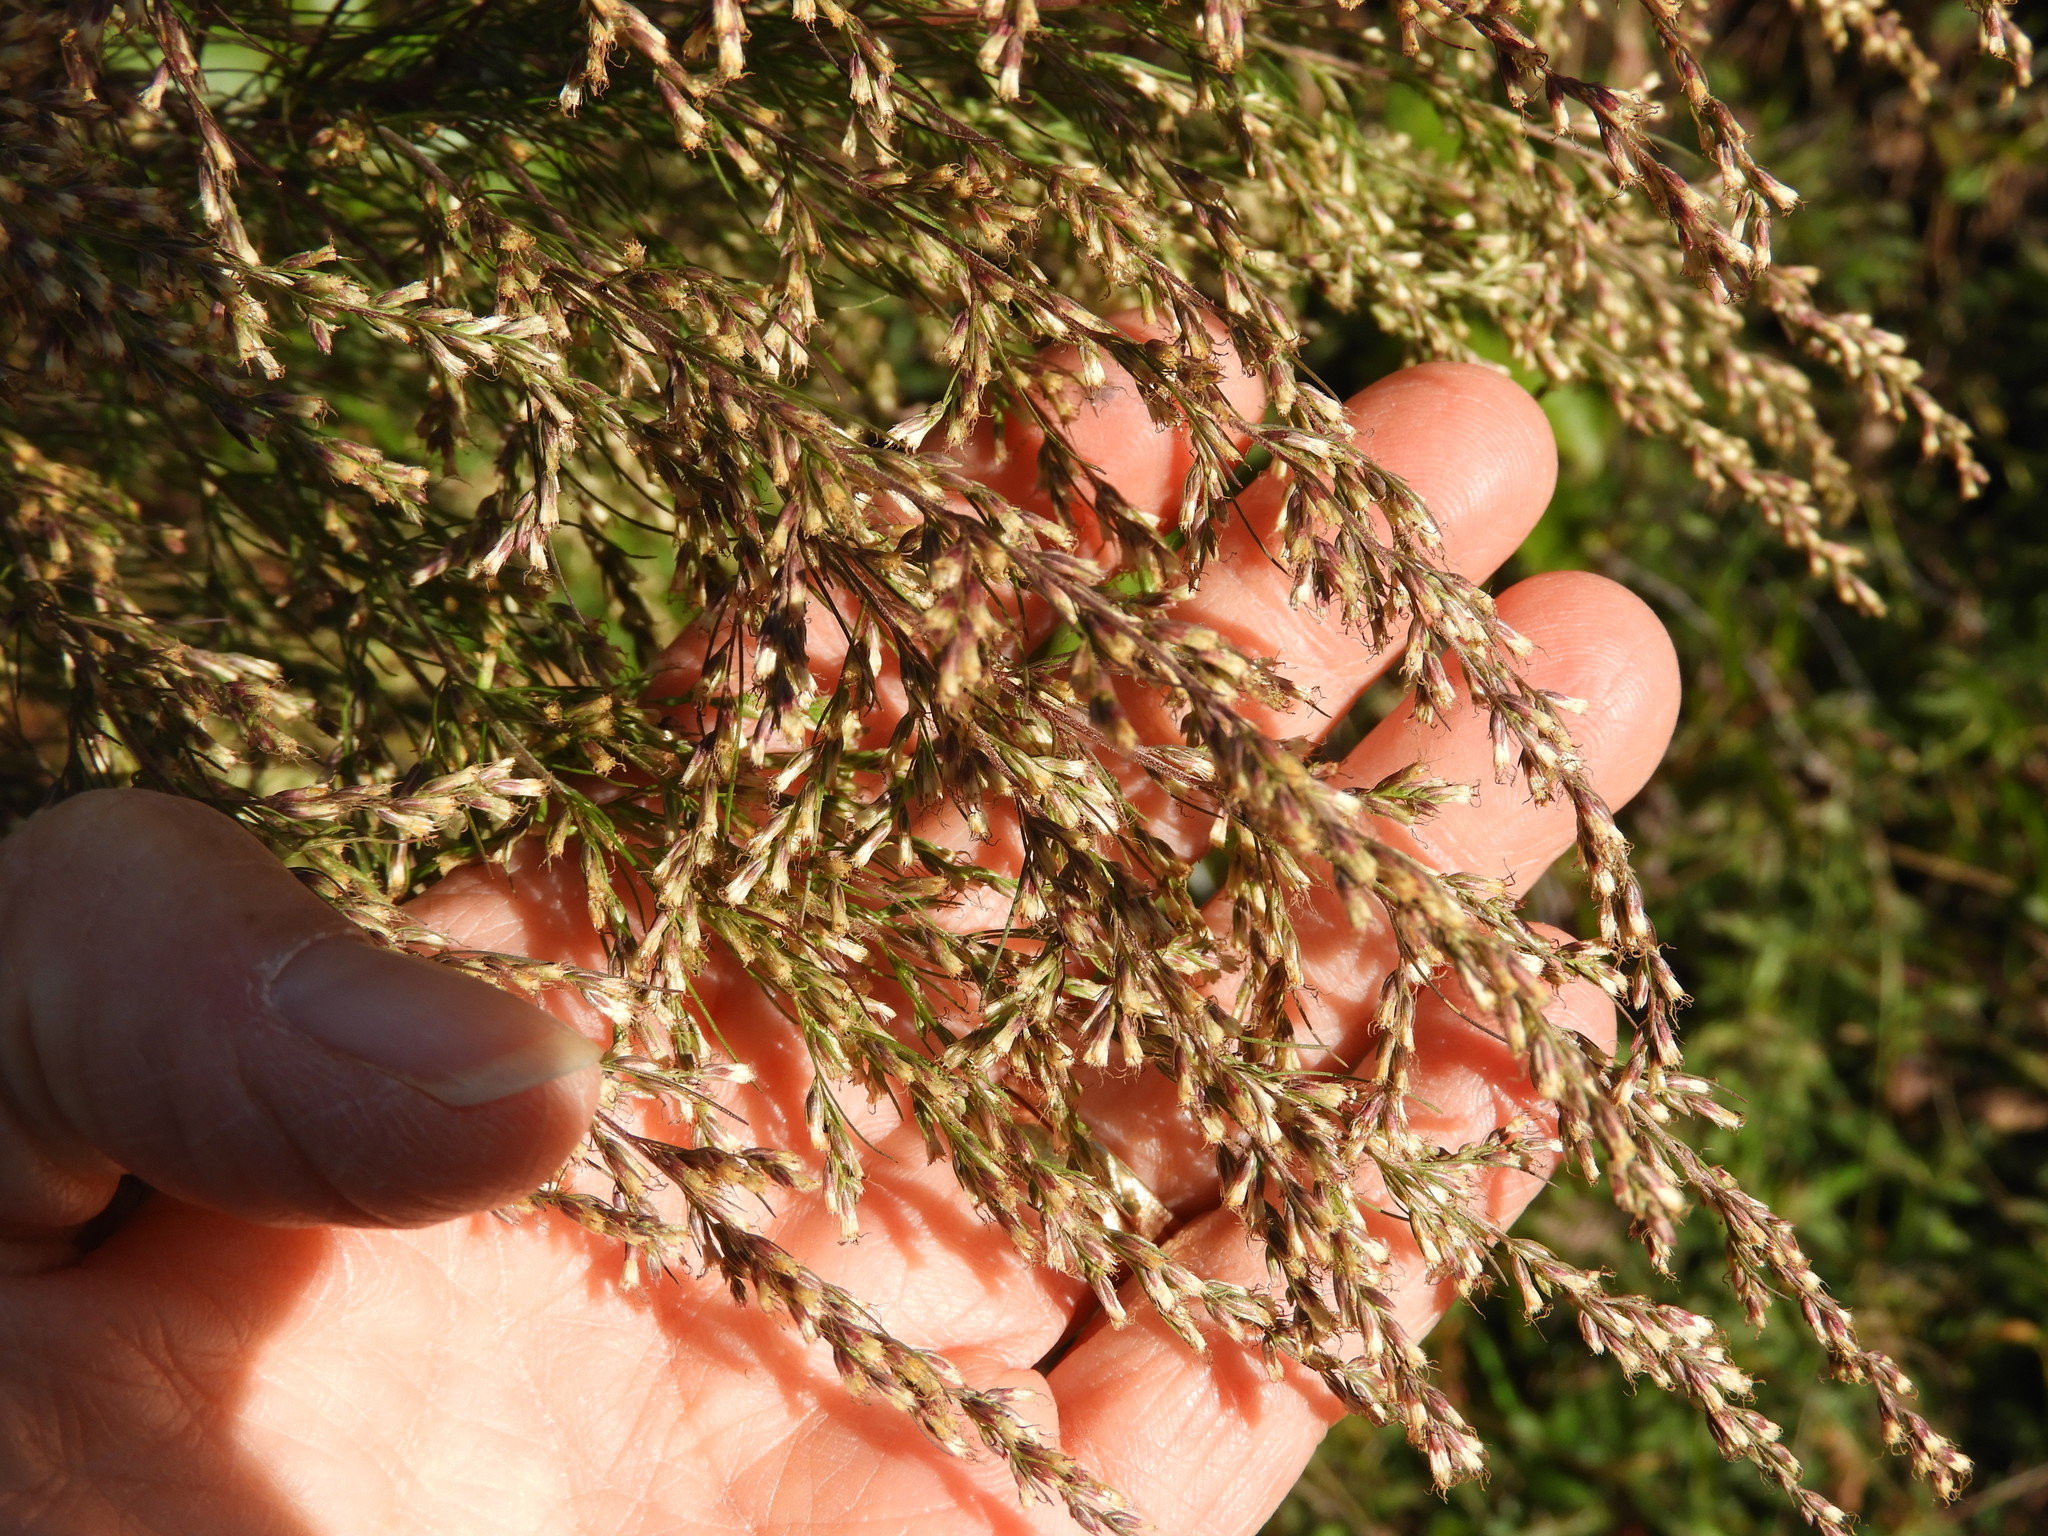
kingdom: Plantae
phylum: Tracheophyta
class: Magnoliopsida
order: Asterales
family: Asteraceae
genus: Eupatorium
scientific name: Eupatorium capillifolium
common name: Dog-fennel
